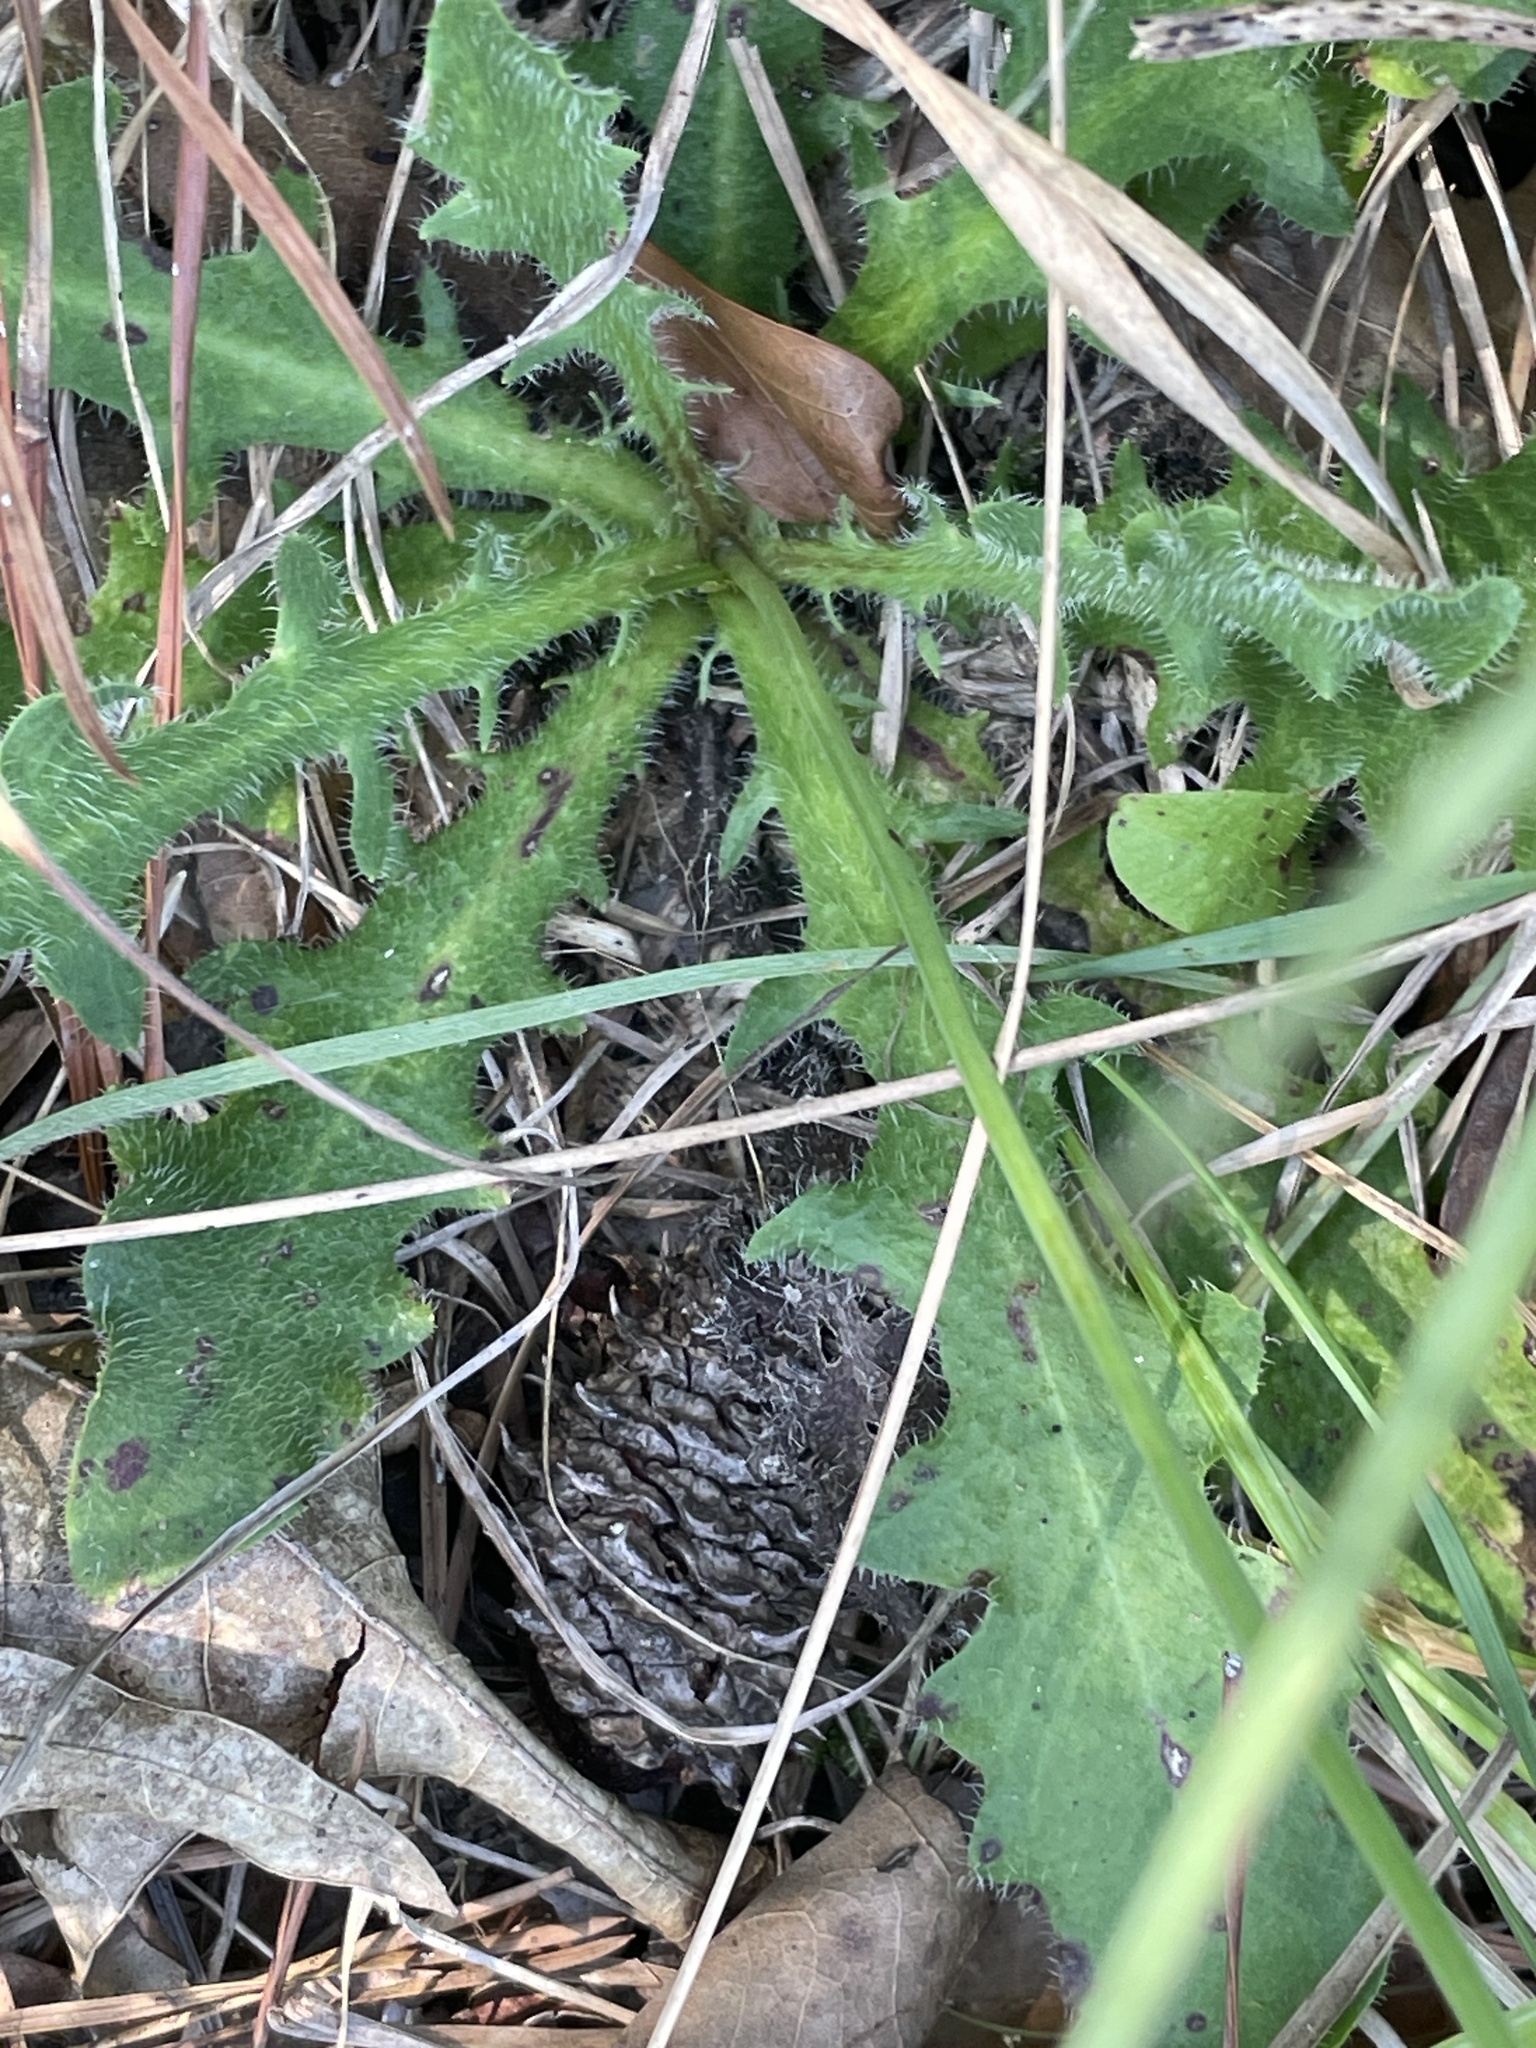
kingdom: Plantae
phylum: Tracheophyta
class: Magnoliopsida
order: Asterales
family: Asteraceae
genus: Hypochaeris
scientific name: Hypochaeris radicata
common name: Flatweed
